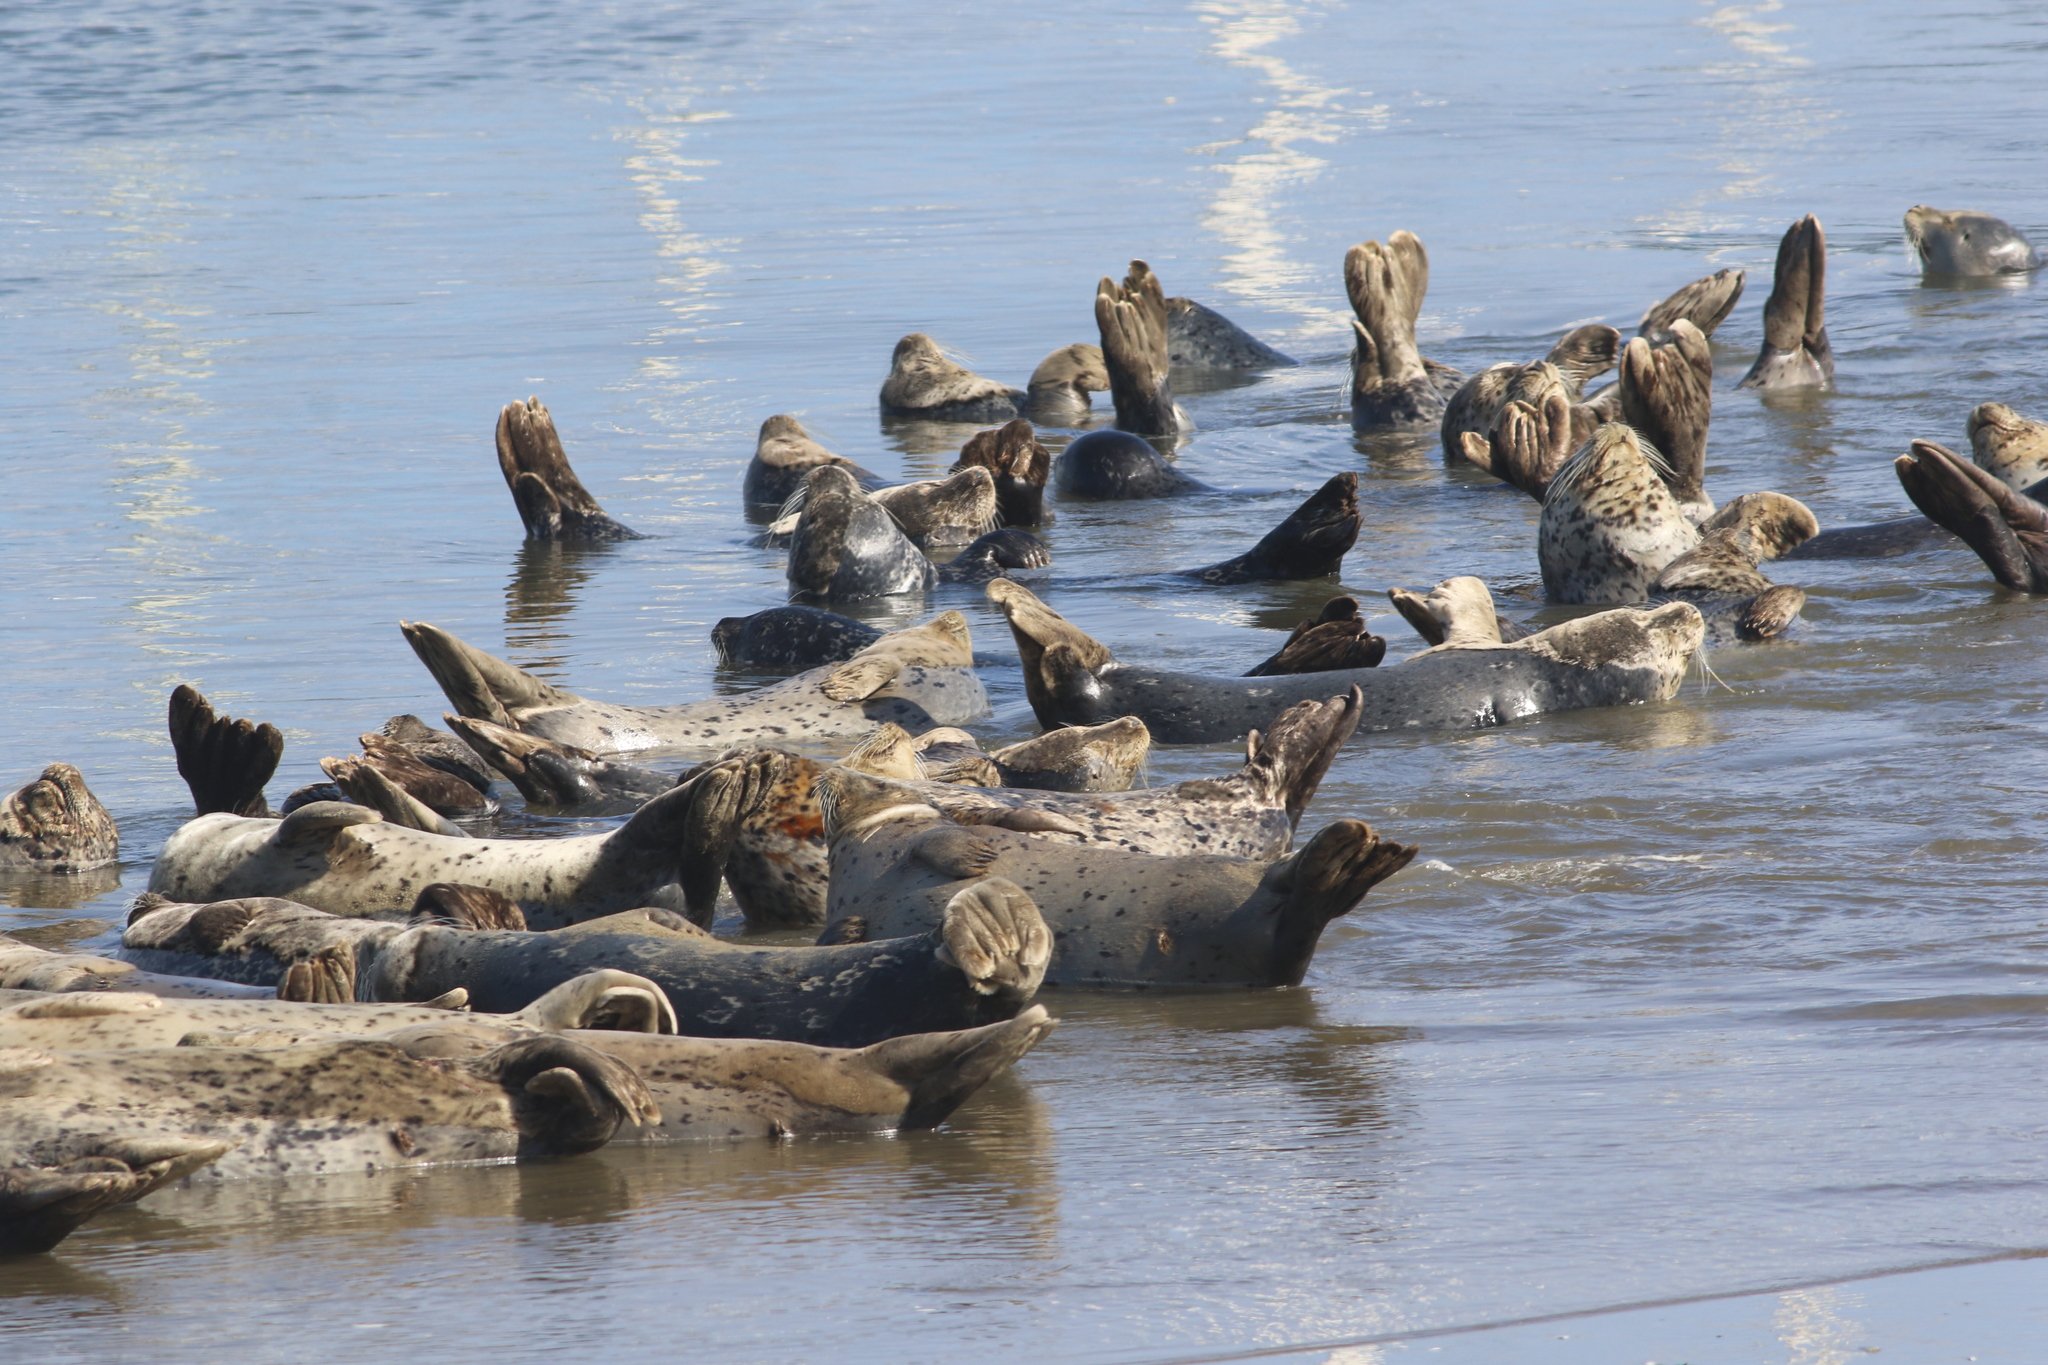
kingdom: Animalia
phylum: Chordata
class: Mammalia
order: Carnivora
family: Phocidae
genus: Phoca
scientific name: Phoca vitulina
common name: Harbor seal
